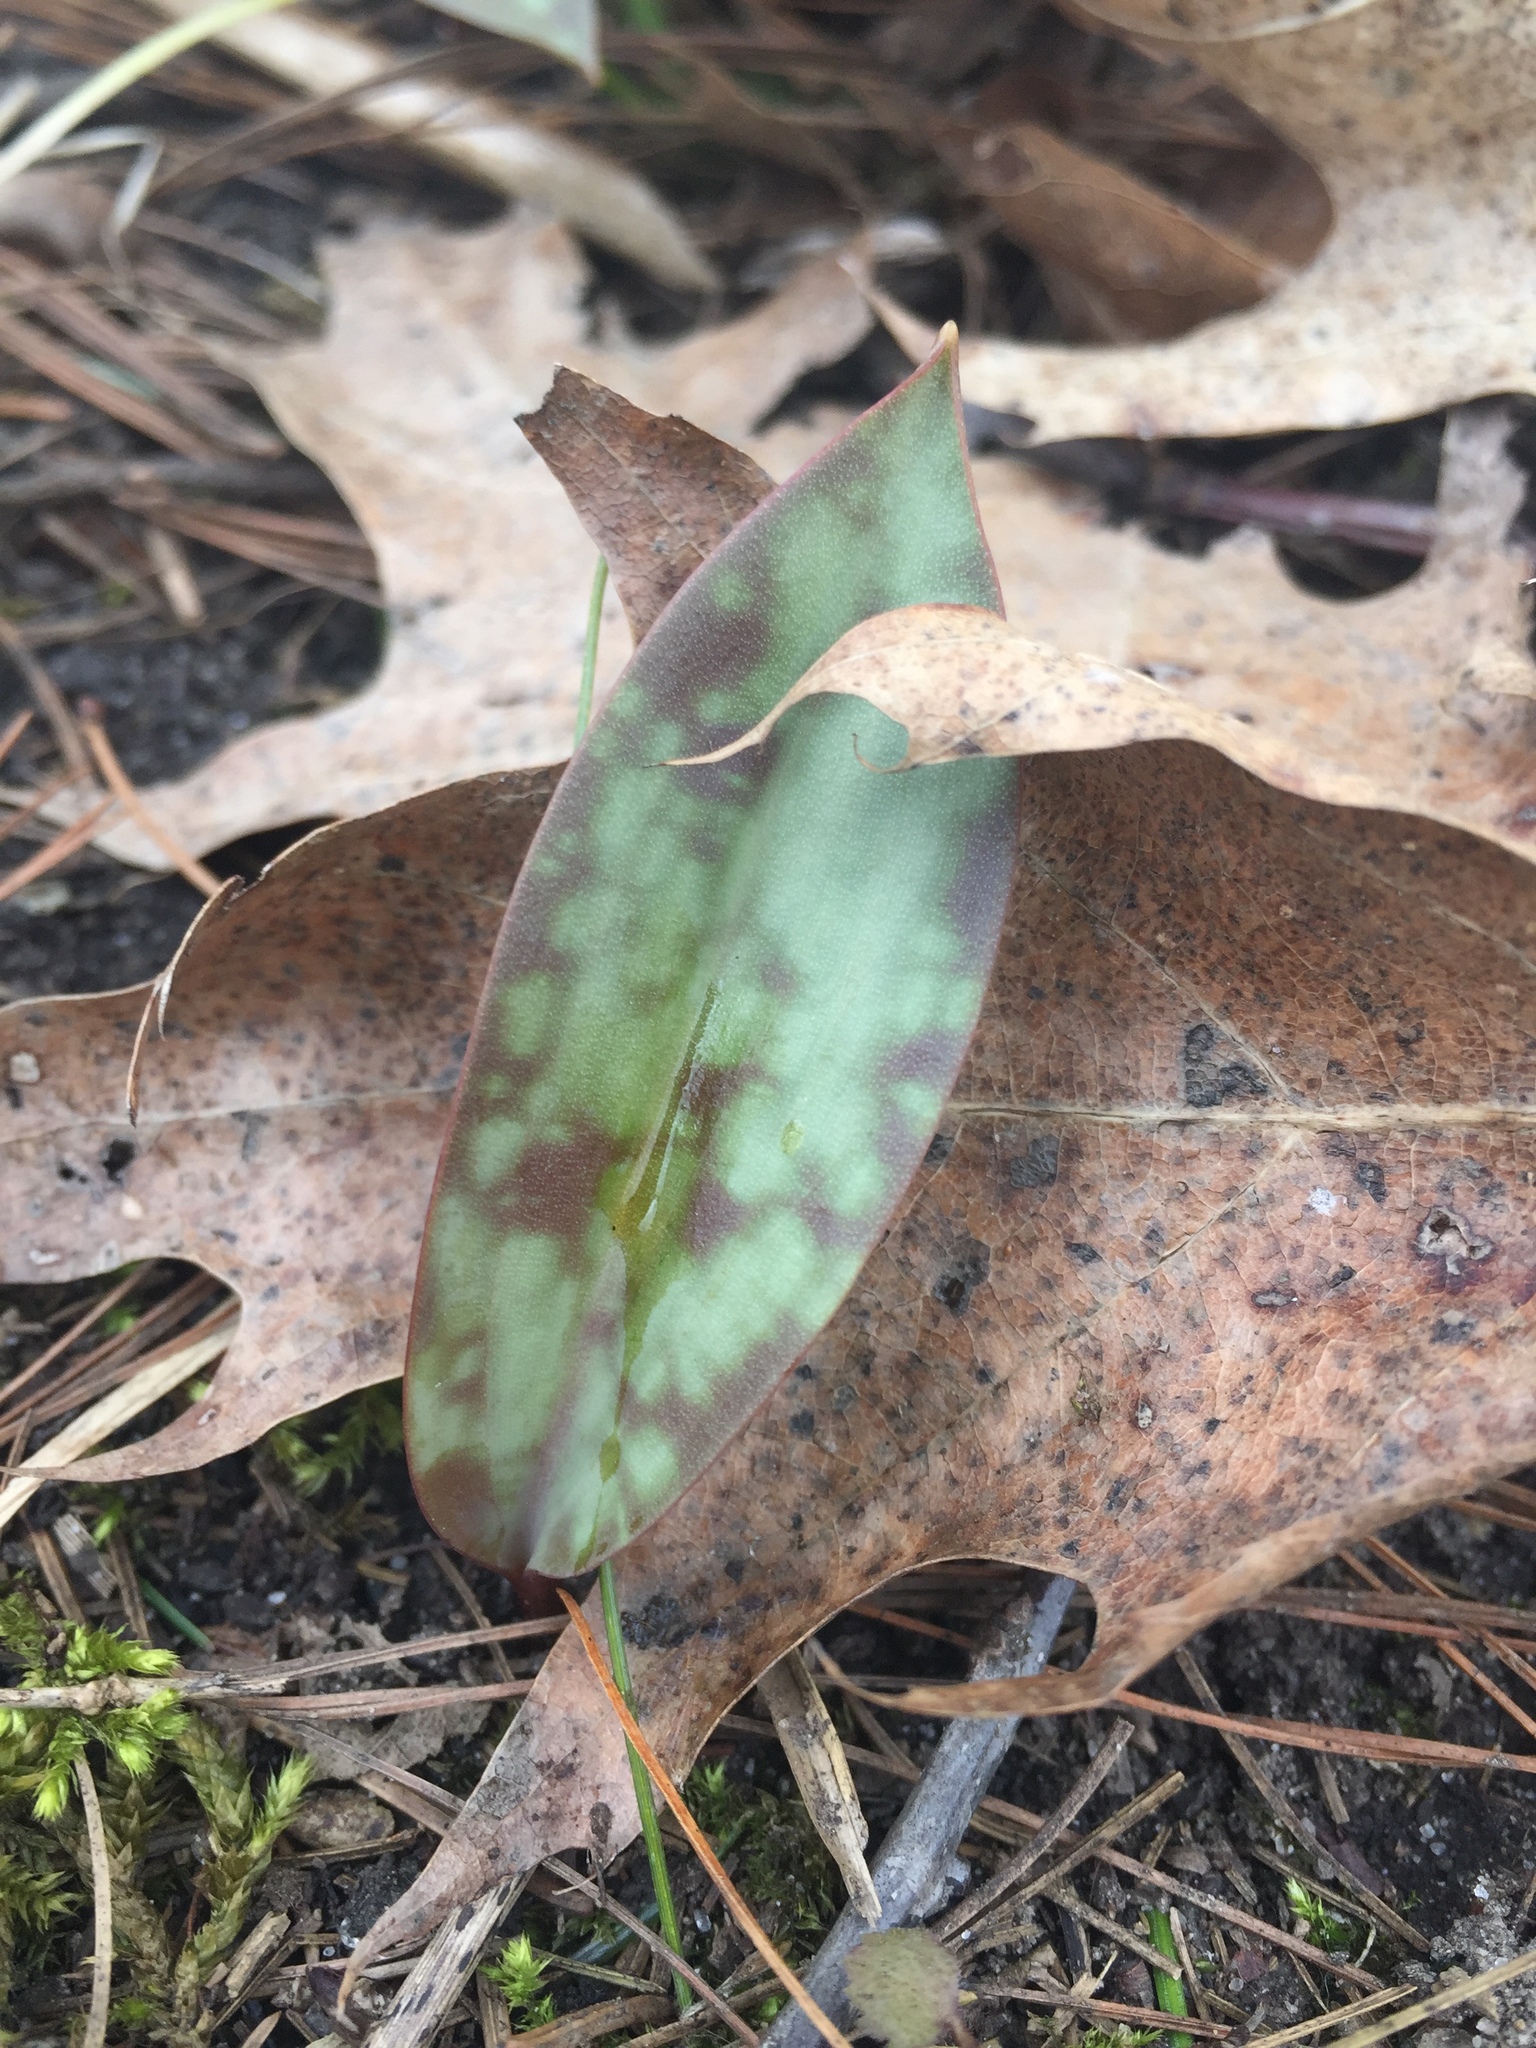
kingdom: Plantae
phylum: Tracheophyta
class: Liliopsida
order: Liliales
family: Liliaceae
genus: Erythronium
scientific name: Erythronium
